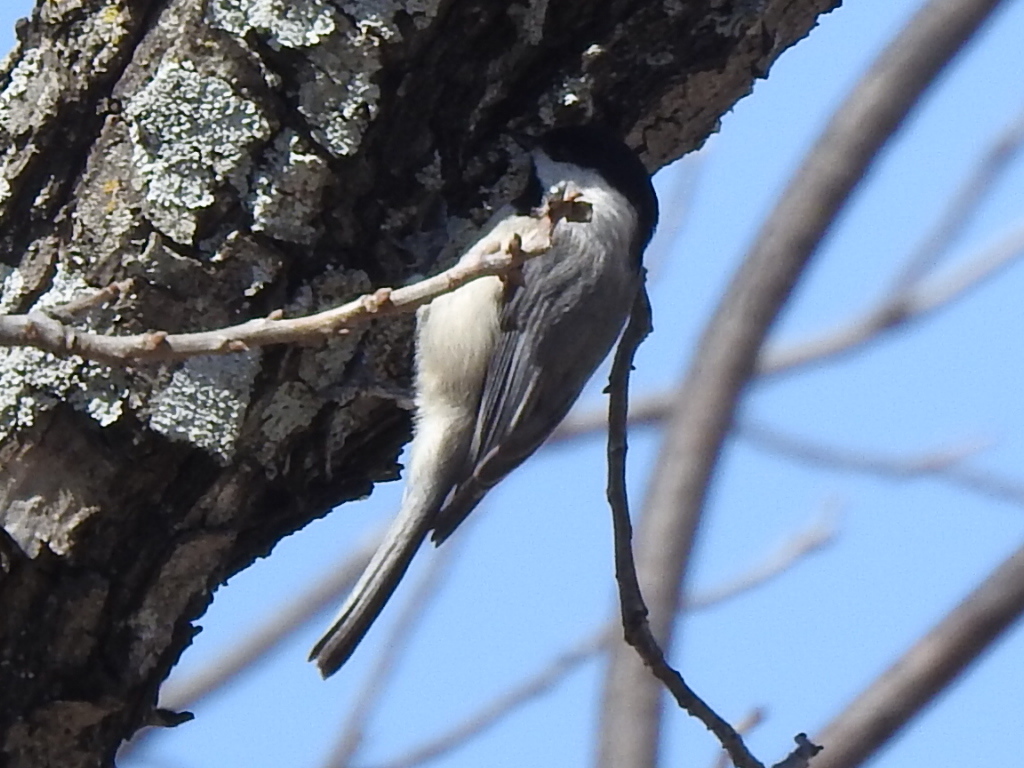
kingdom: Animalia
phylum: Chordata
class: Aves
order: Passeriformes
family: Paridae
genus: Poecile
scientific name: Poecile carolinensis
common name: Carolina chickadee
